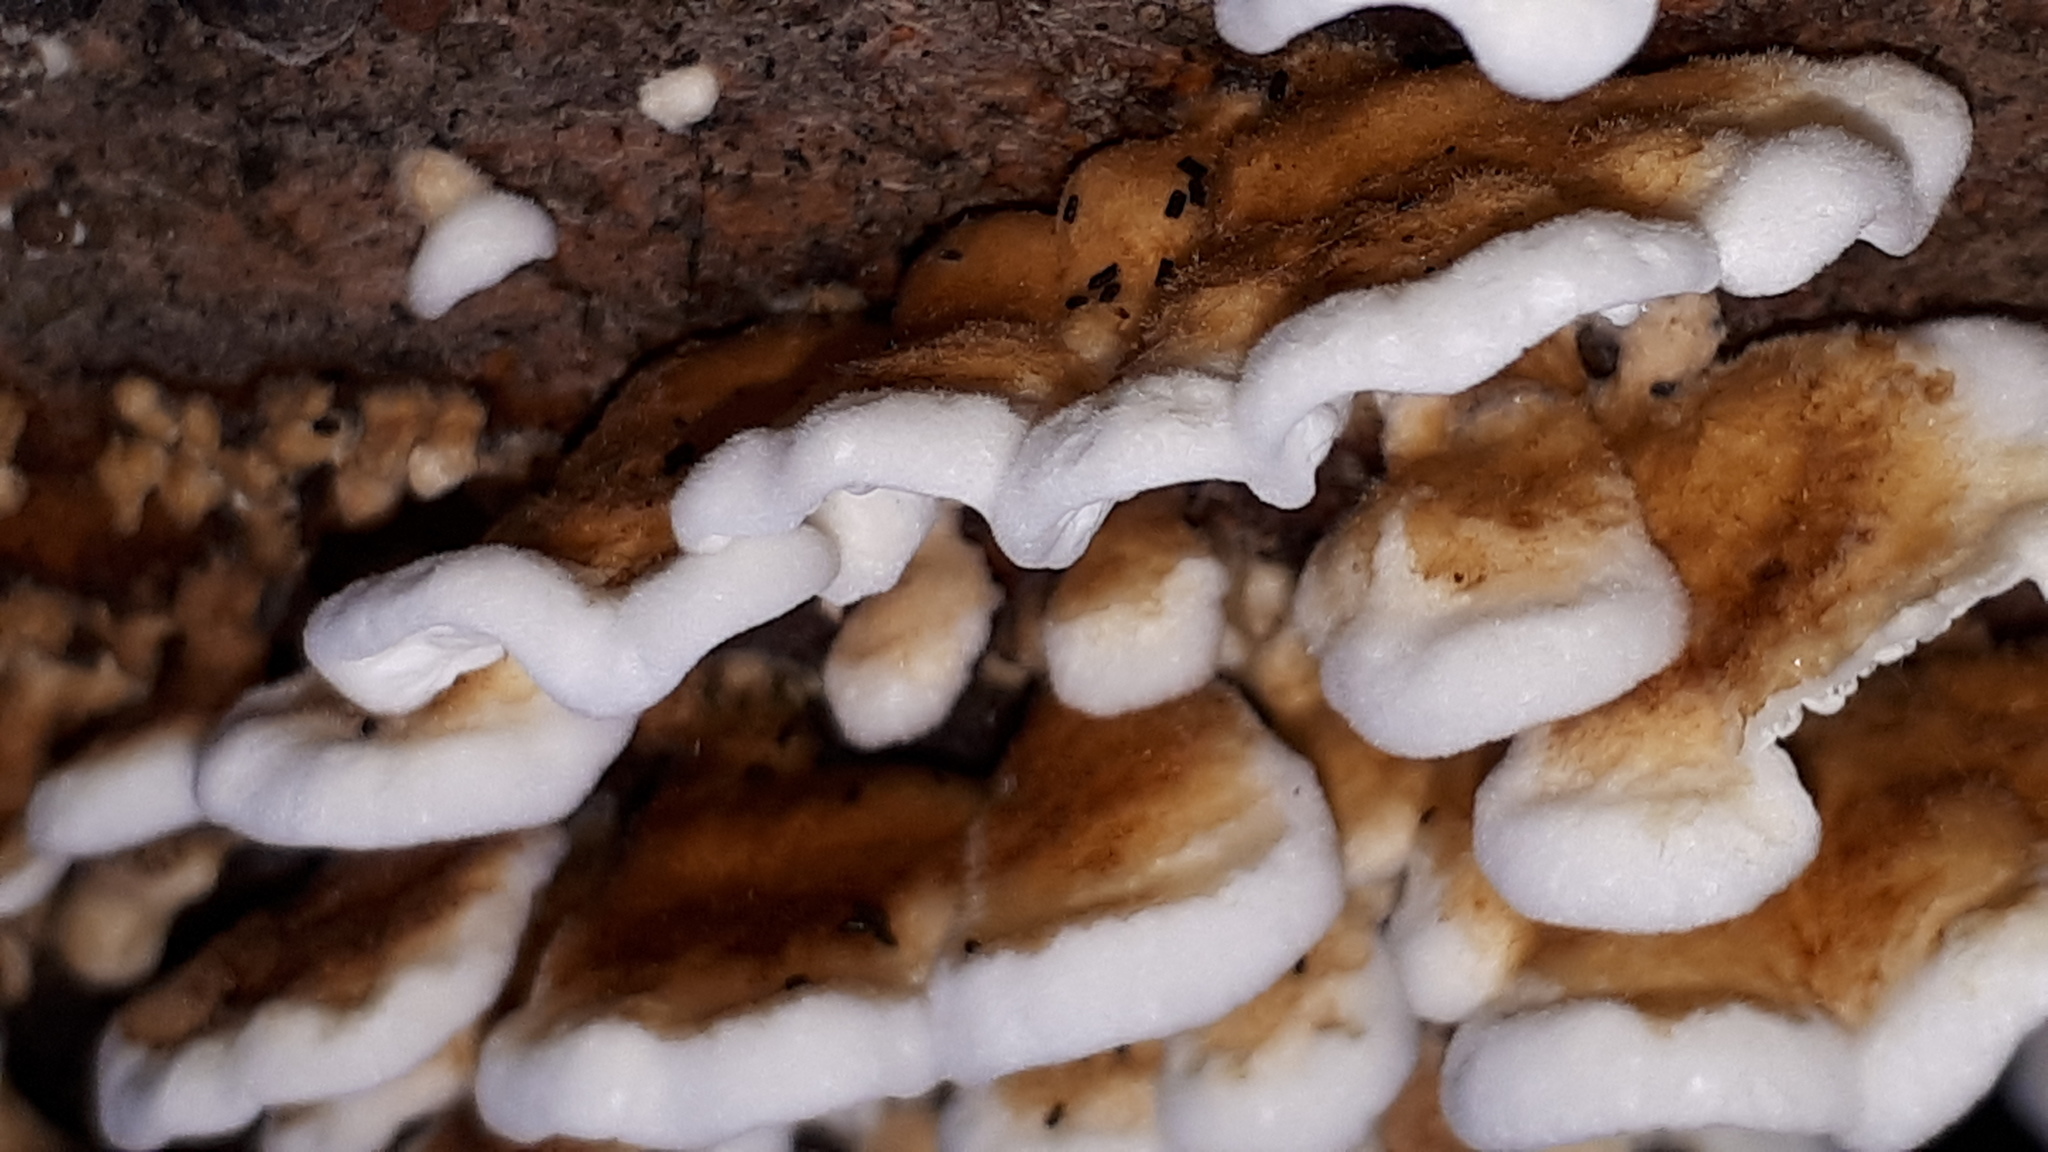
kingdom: Fungi
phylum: Basidiomycota
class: Agaricomycetes
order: Amylocorticiales
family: Amylocorticiaceae
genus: Plicaturopsis
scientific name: Plicaturopsis crispa
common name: Crimped gill
